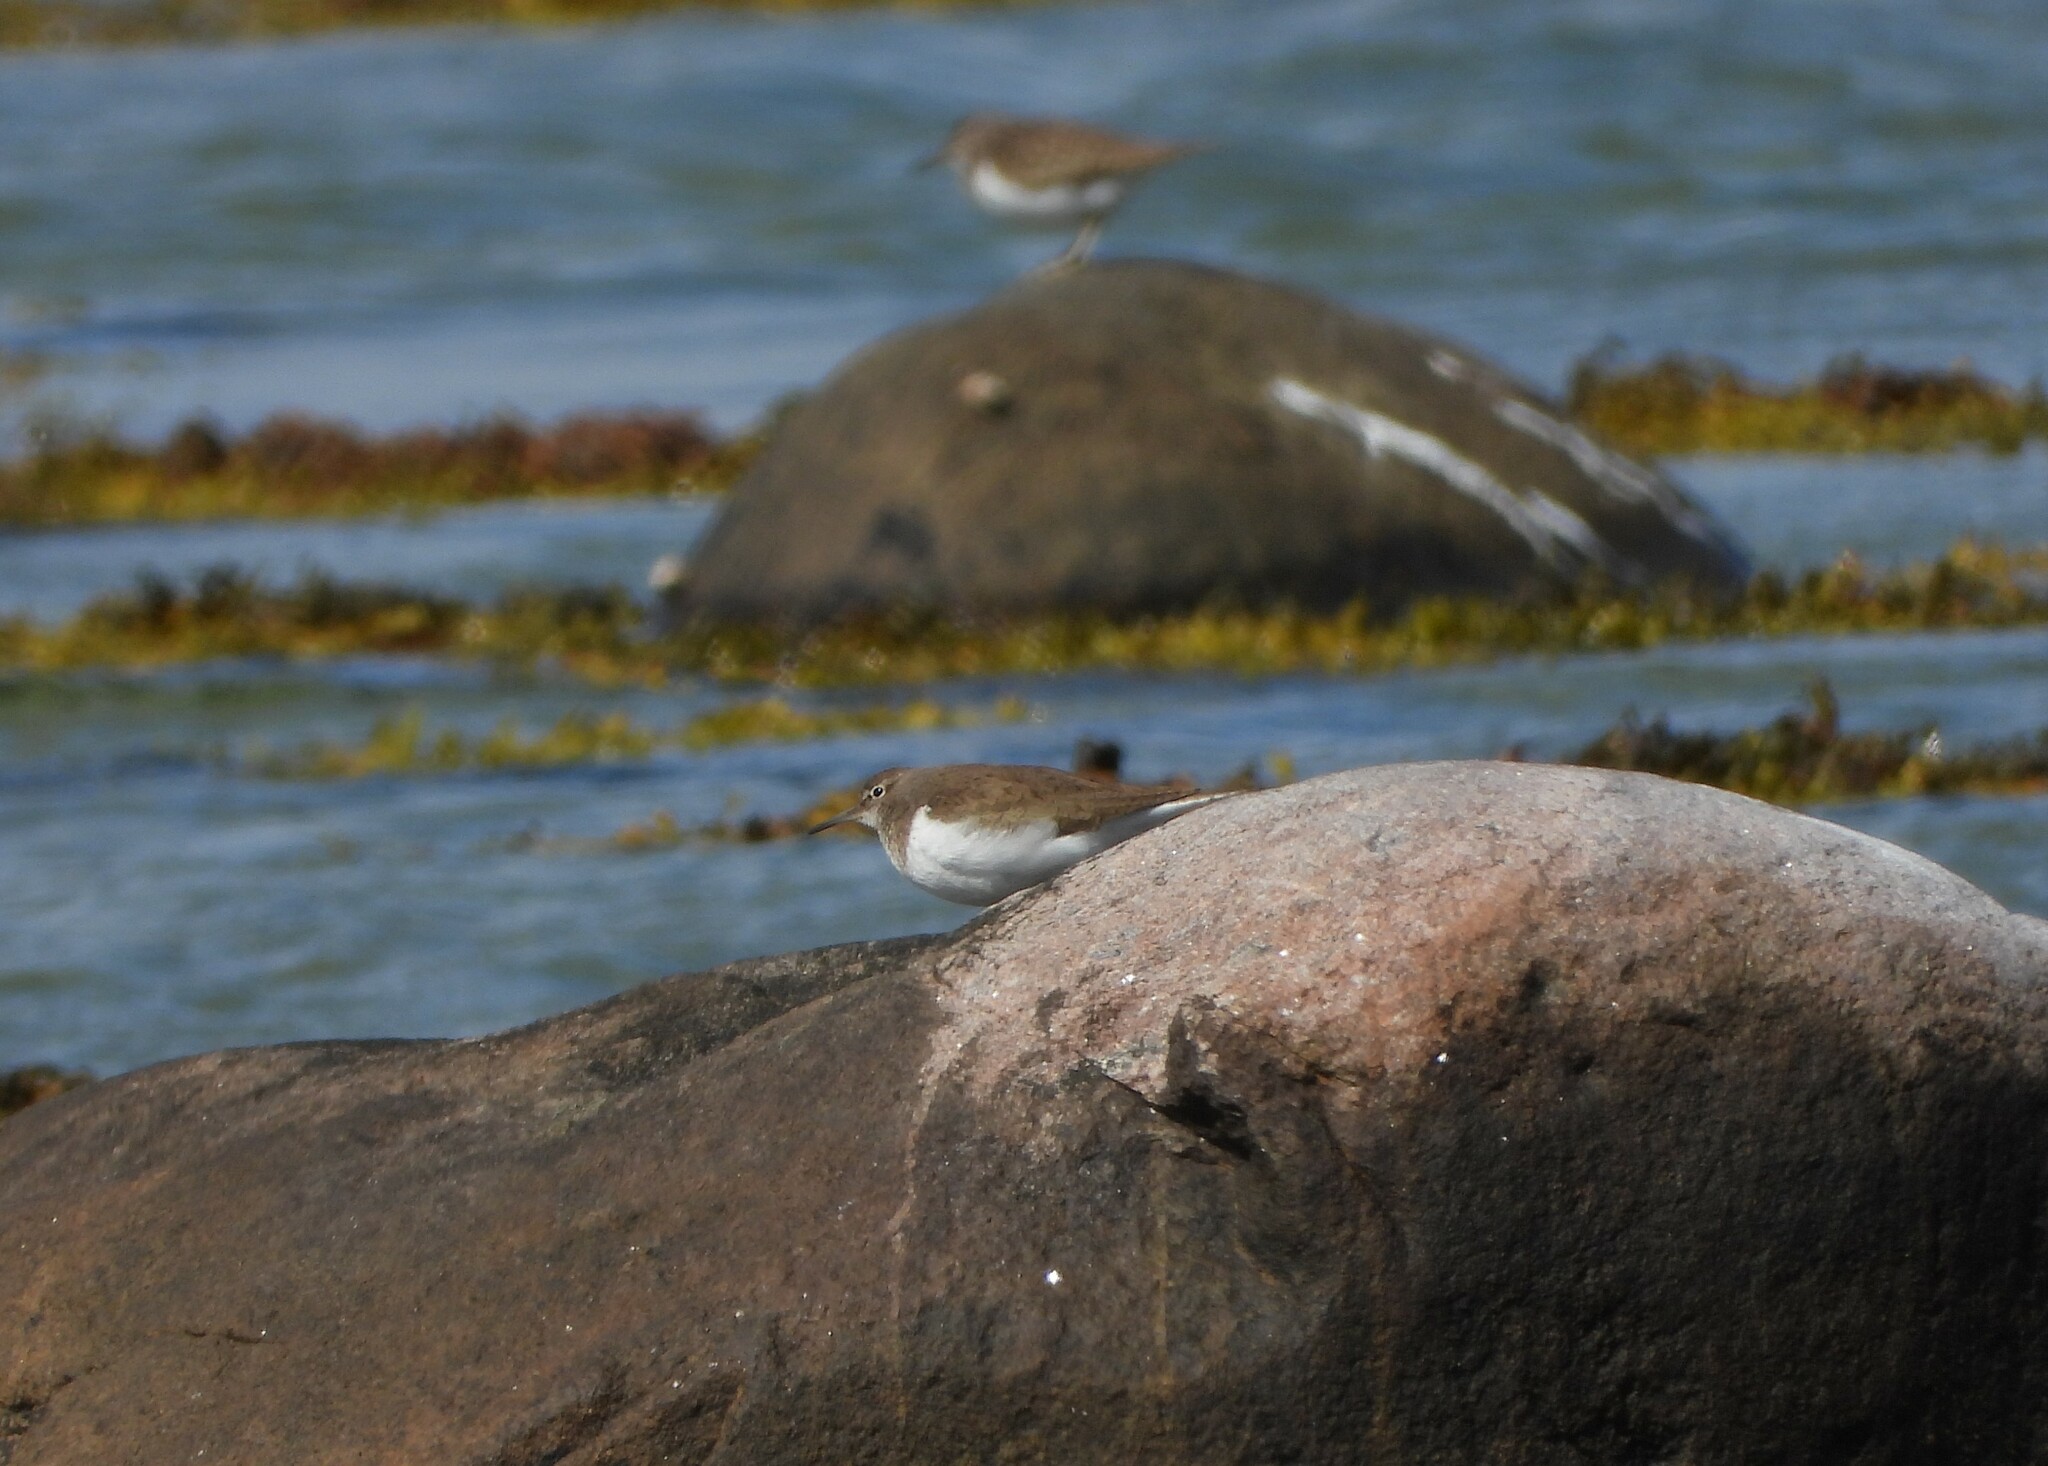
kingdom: Animalia
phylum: Chordata
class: Aves
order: Charadriiformes
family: Scolopacidae
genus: Actitis
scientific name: Actitis hypoleucos
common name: Common sandpiper
